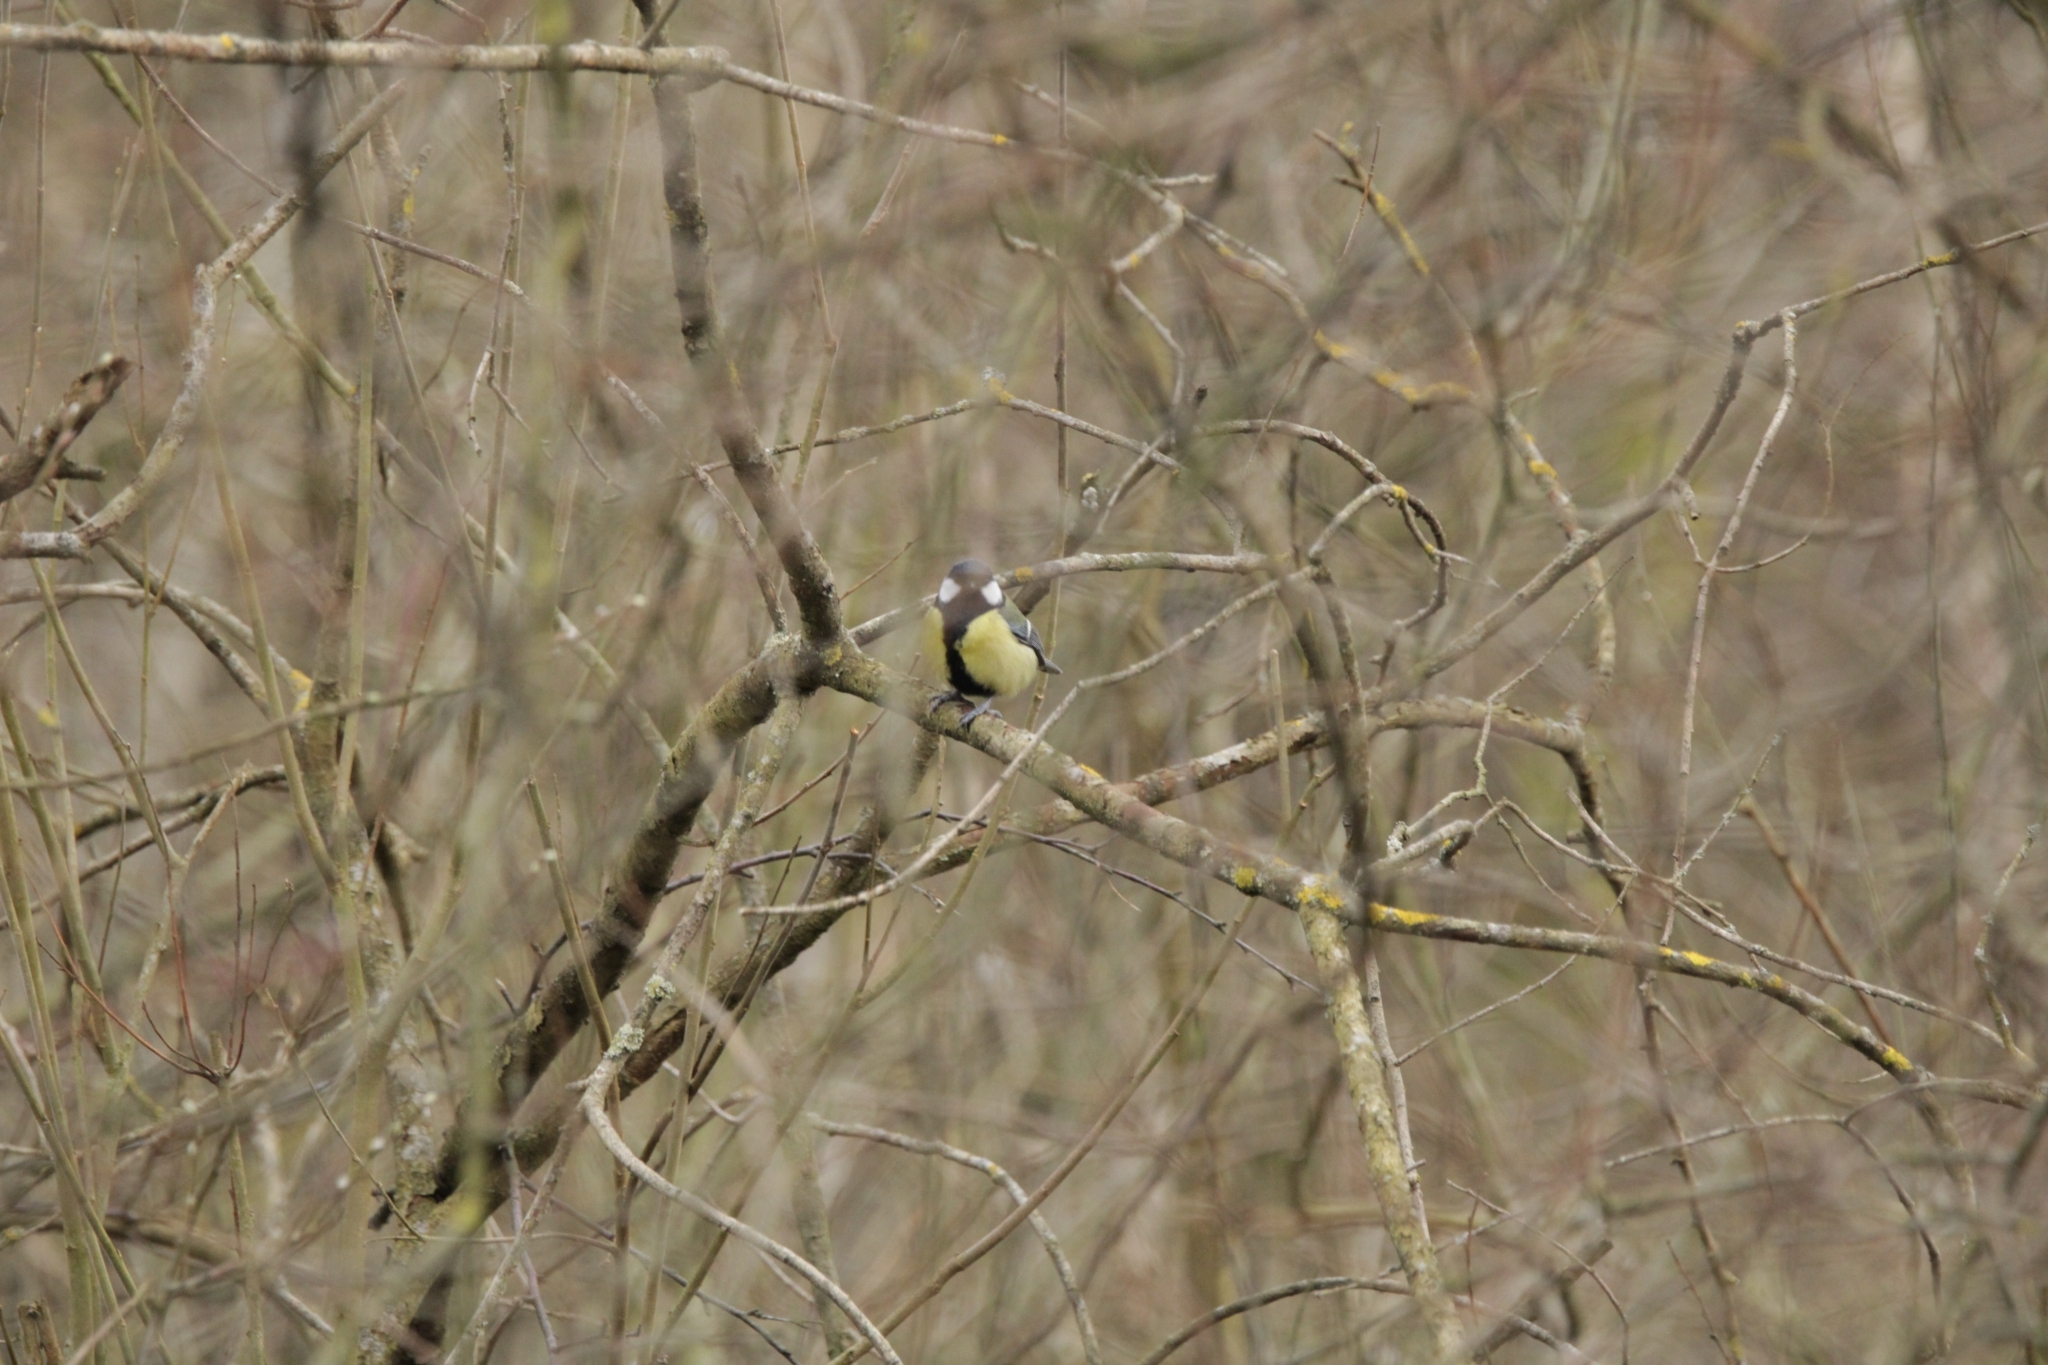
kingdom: Animalia
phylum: Chordata
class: Aves
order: Passeriformes
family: Paridae
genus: Parus
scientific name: Parus major
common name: Great tit
